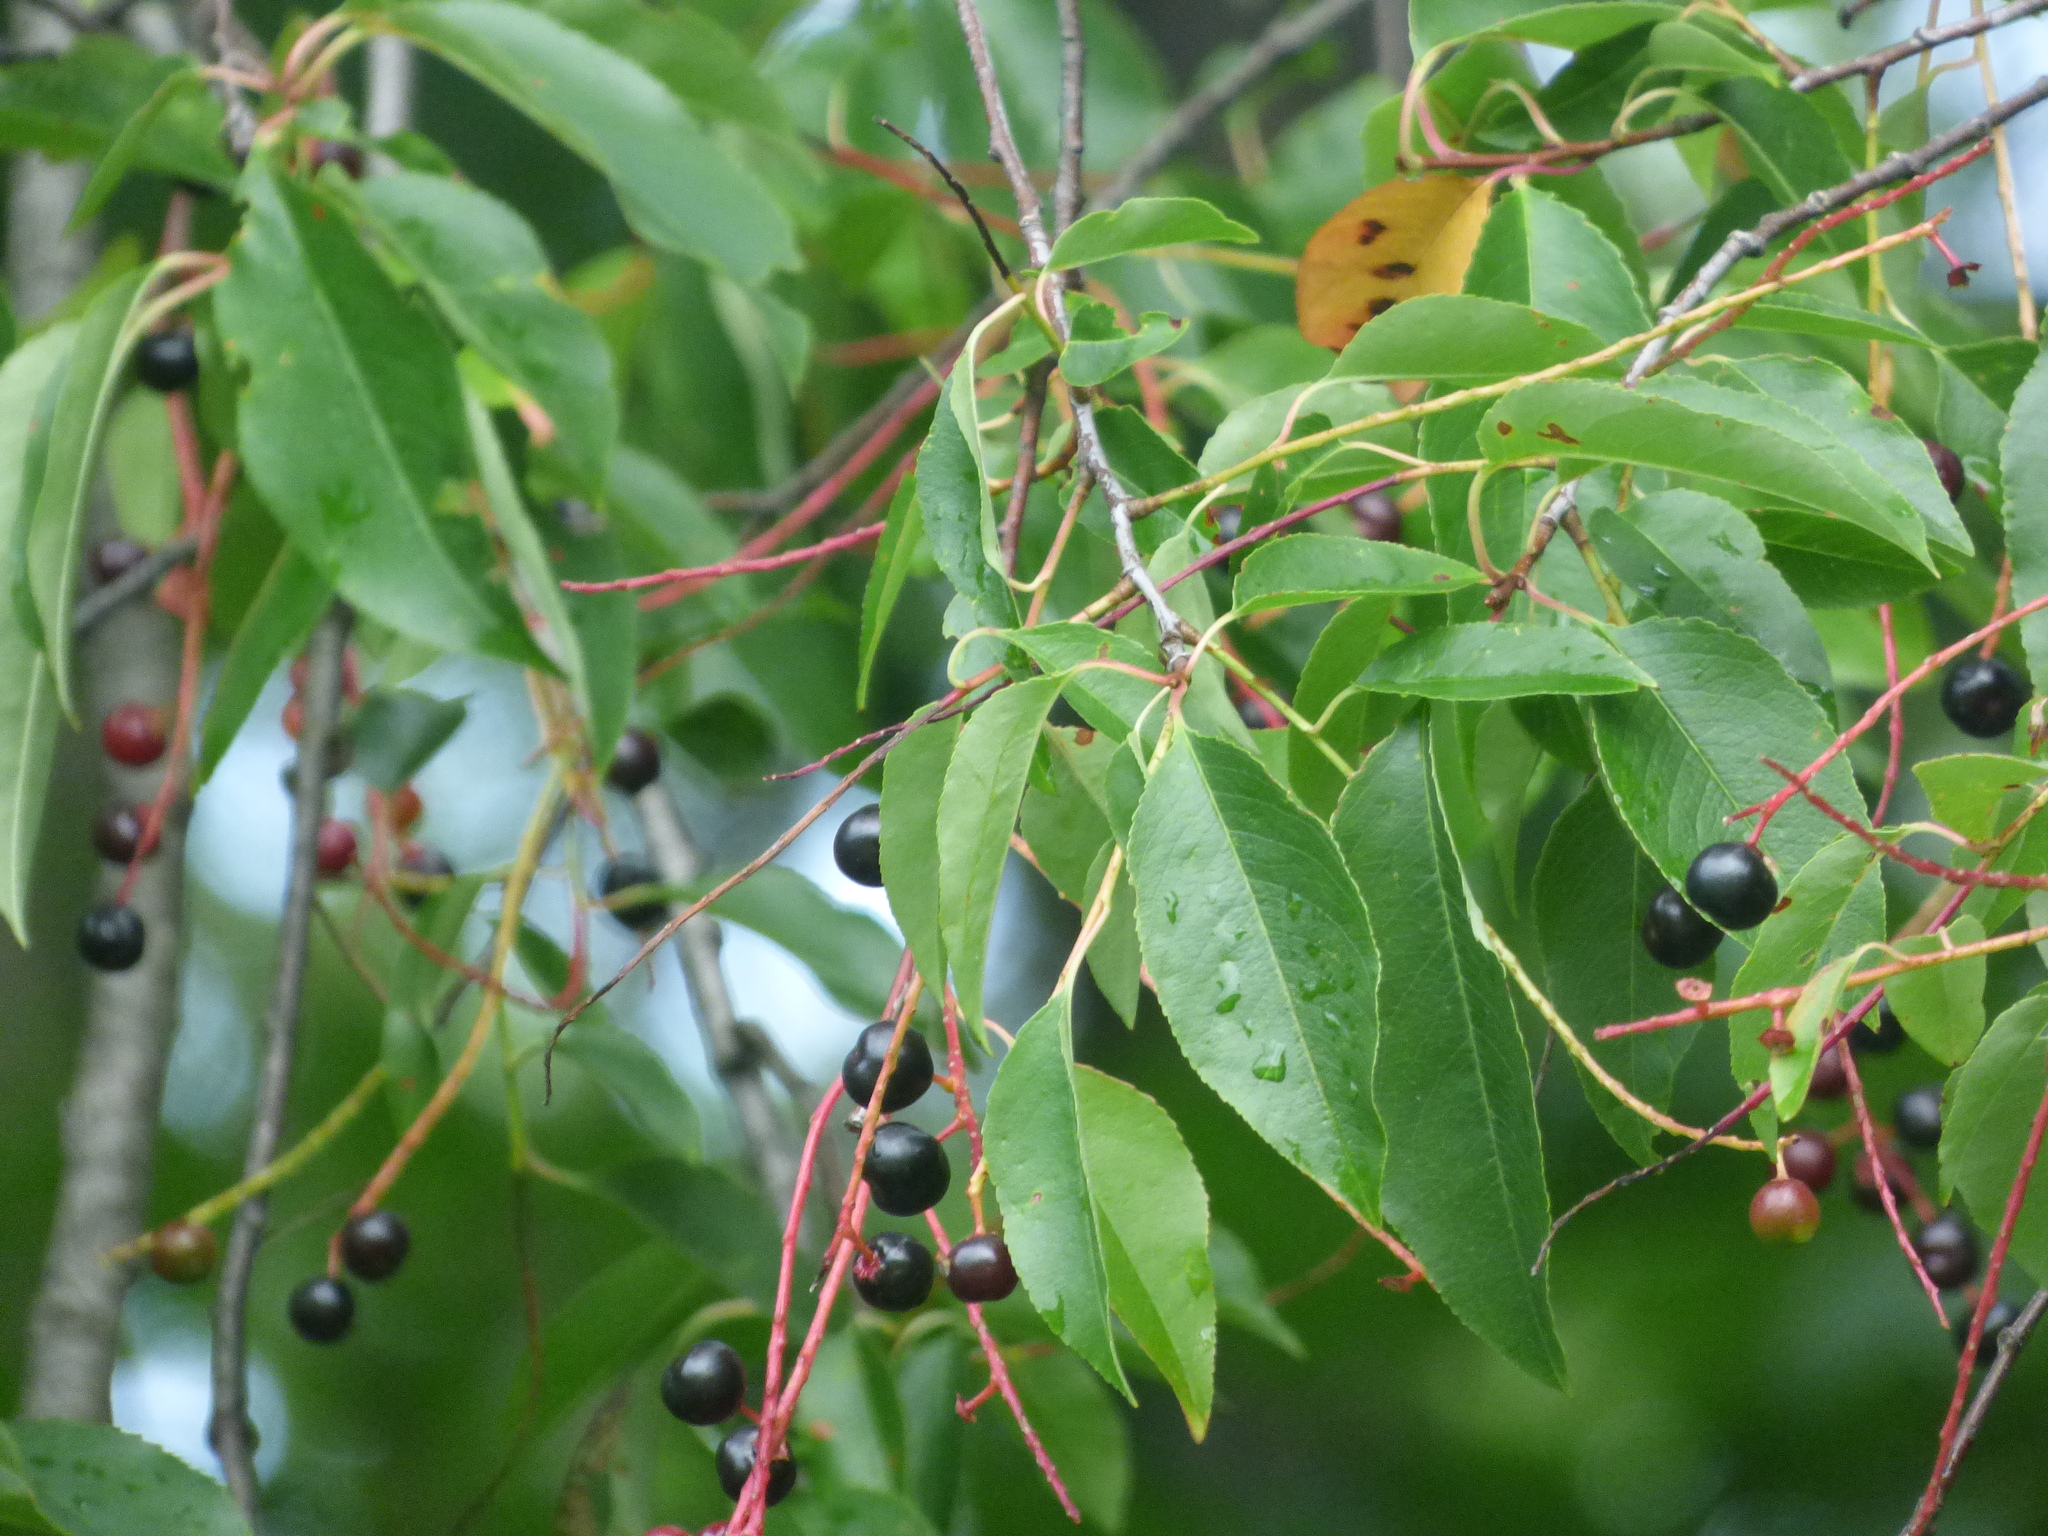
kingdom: Plantae
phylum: Tracheophyta
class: Magnoliopsida
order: Rosales
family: Rosaceae
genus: Prunus
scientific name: Prunus serotina
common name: Black cherry
